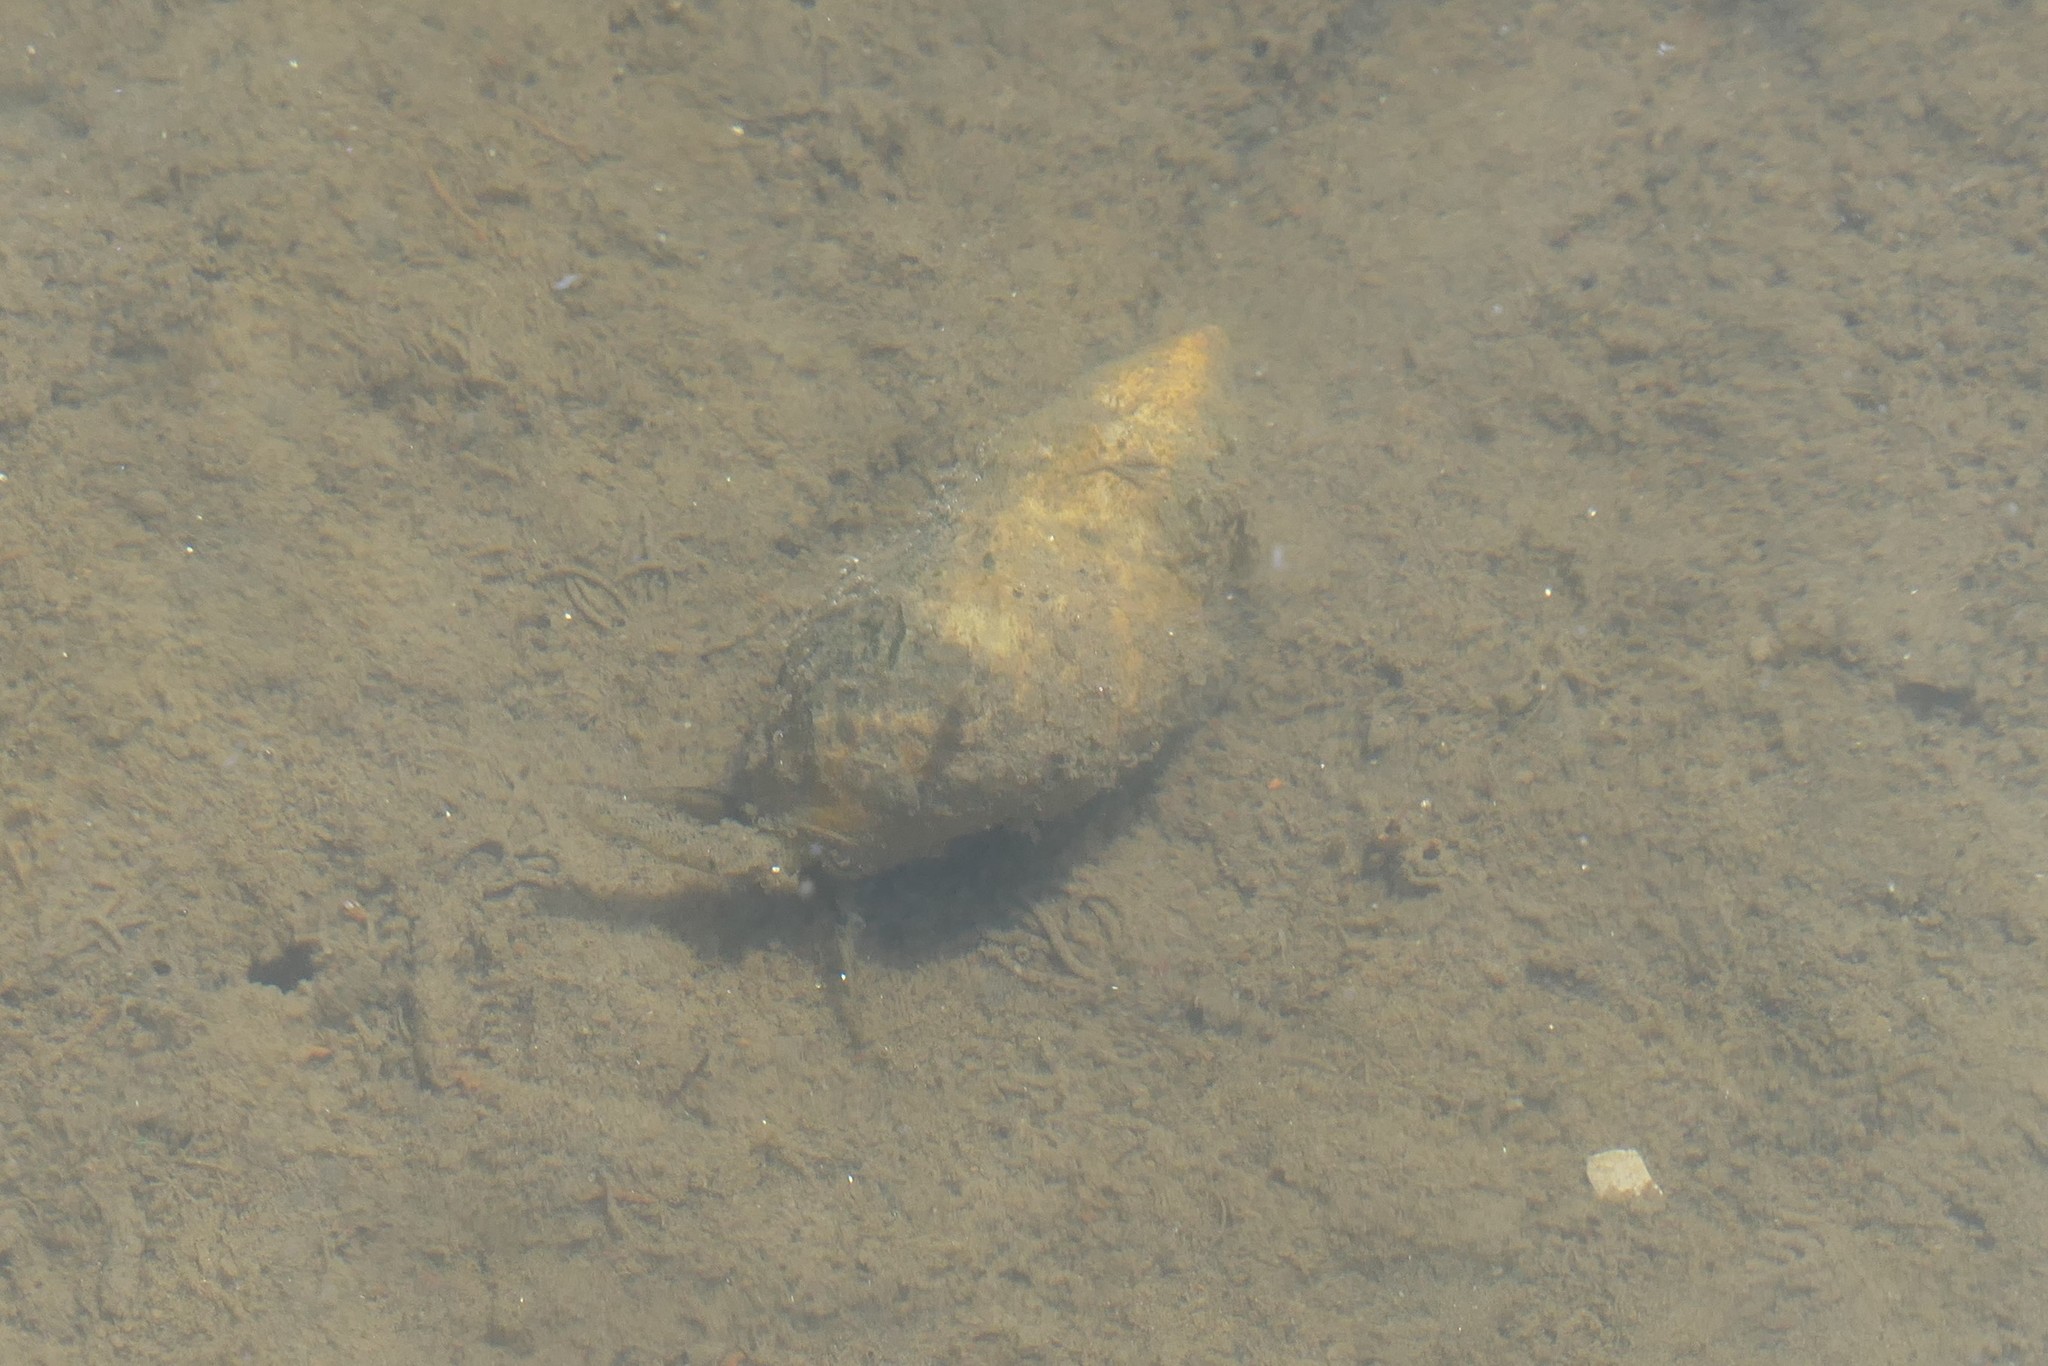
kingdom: Animalia
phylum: Mollusca
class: Gastropoda
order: Neogastropoda
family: Nassariidae
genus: Ilyanassa
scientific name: Ilyanassa obsoleta
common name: Eastern mudsnail
